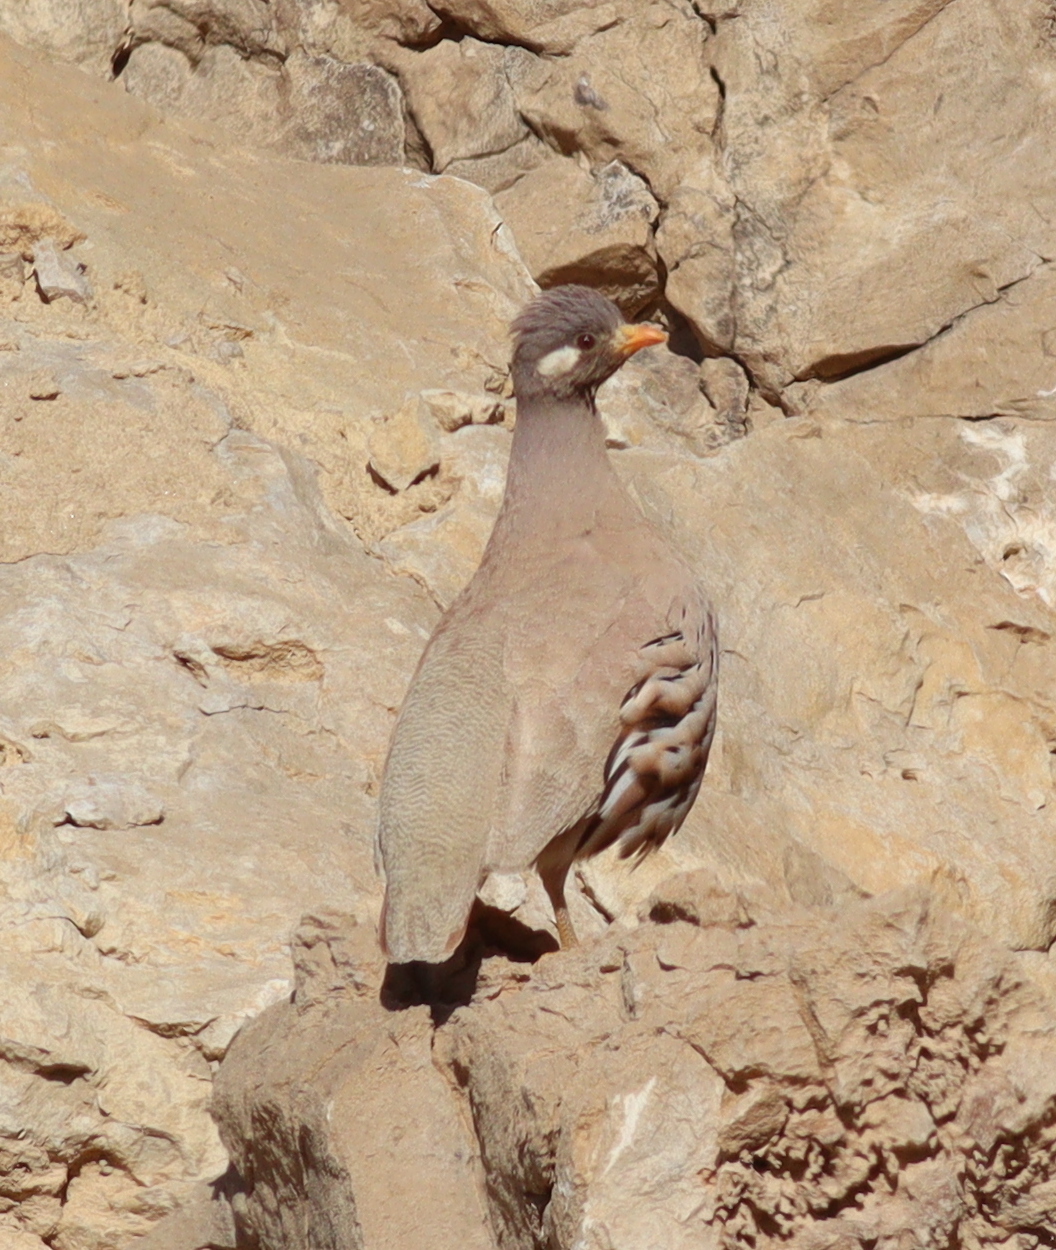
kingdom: Animalia
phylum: Chordata
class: Aves
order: Galliformes
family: Phasianidae
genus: Ammoperdix
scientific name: Ammoperdix heyi
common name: Sand partridge
